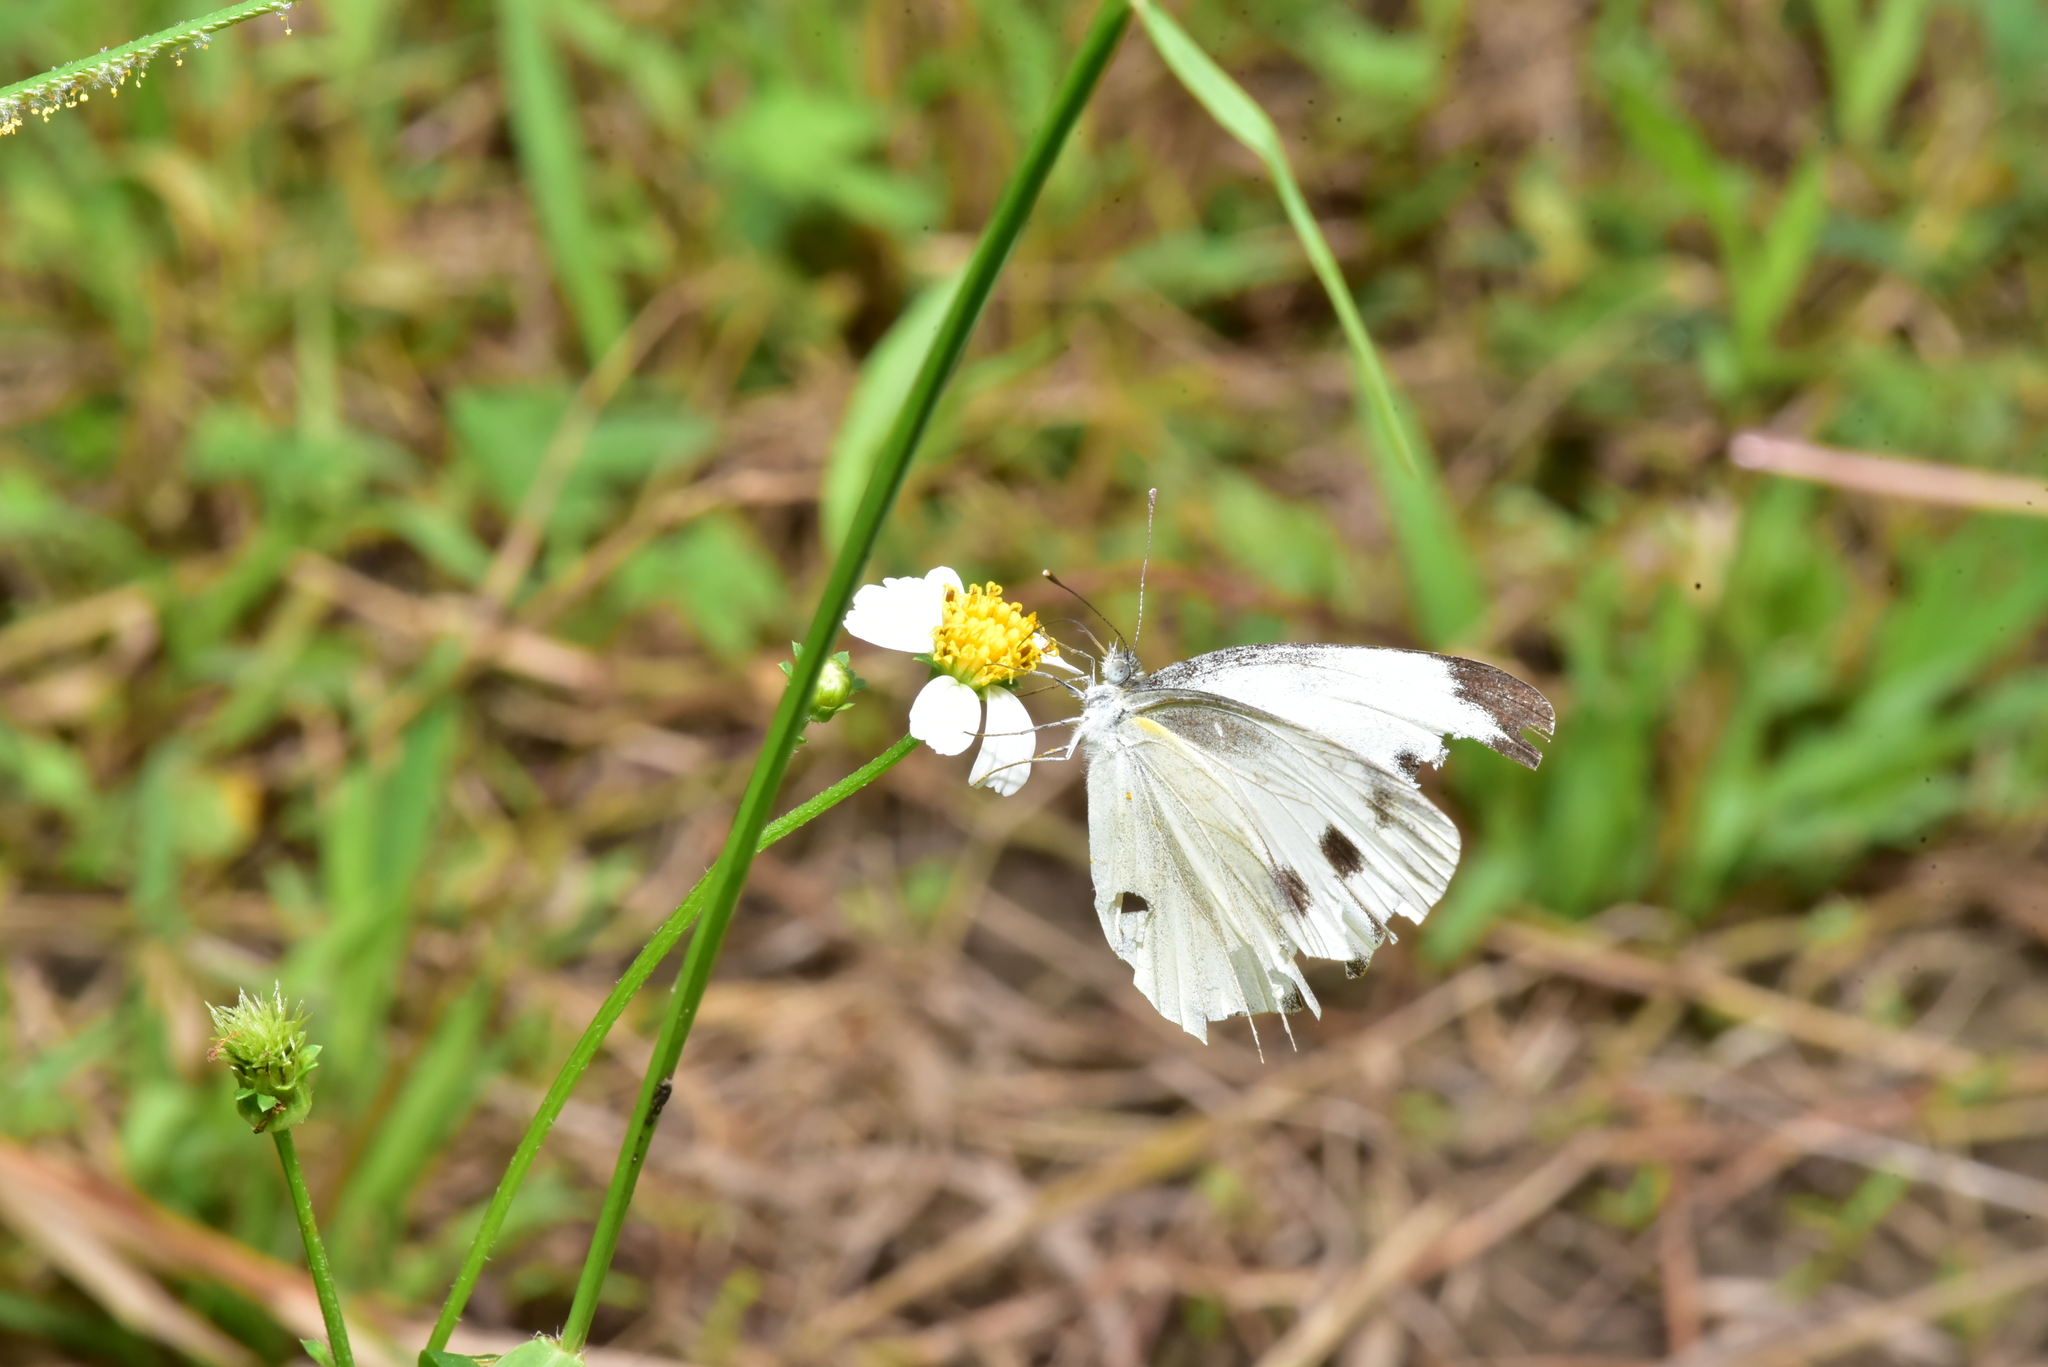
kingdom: Animalia
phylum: Arthropoda
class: Insecta
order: Lepidoptera
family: Pieridae
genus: Pieris
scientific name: Pieris canidia
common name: Indian cabbage white
